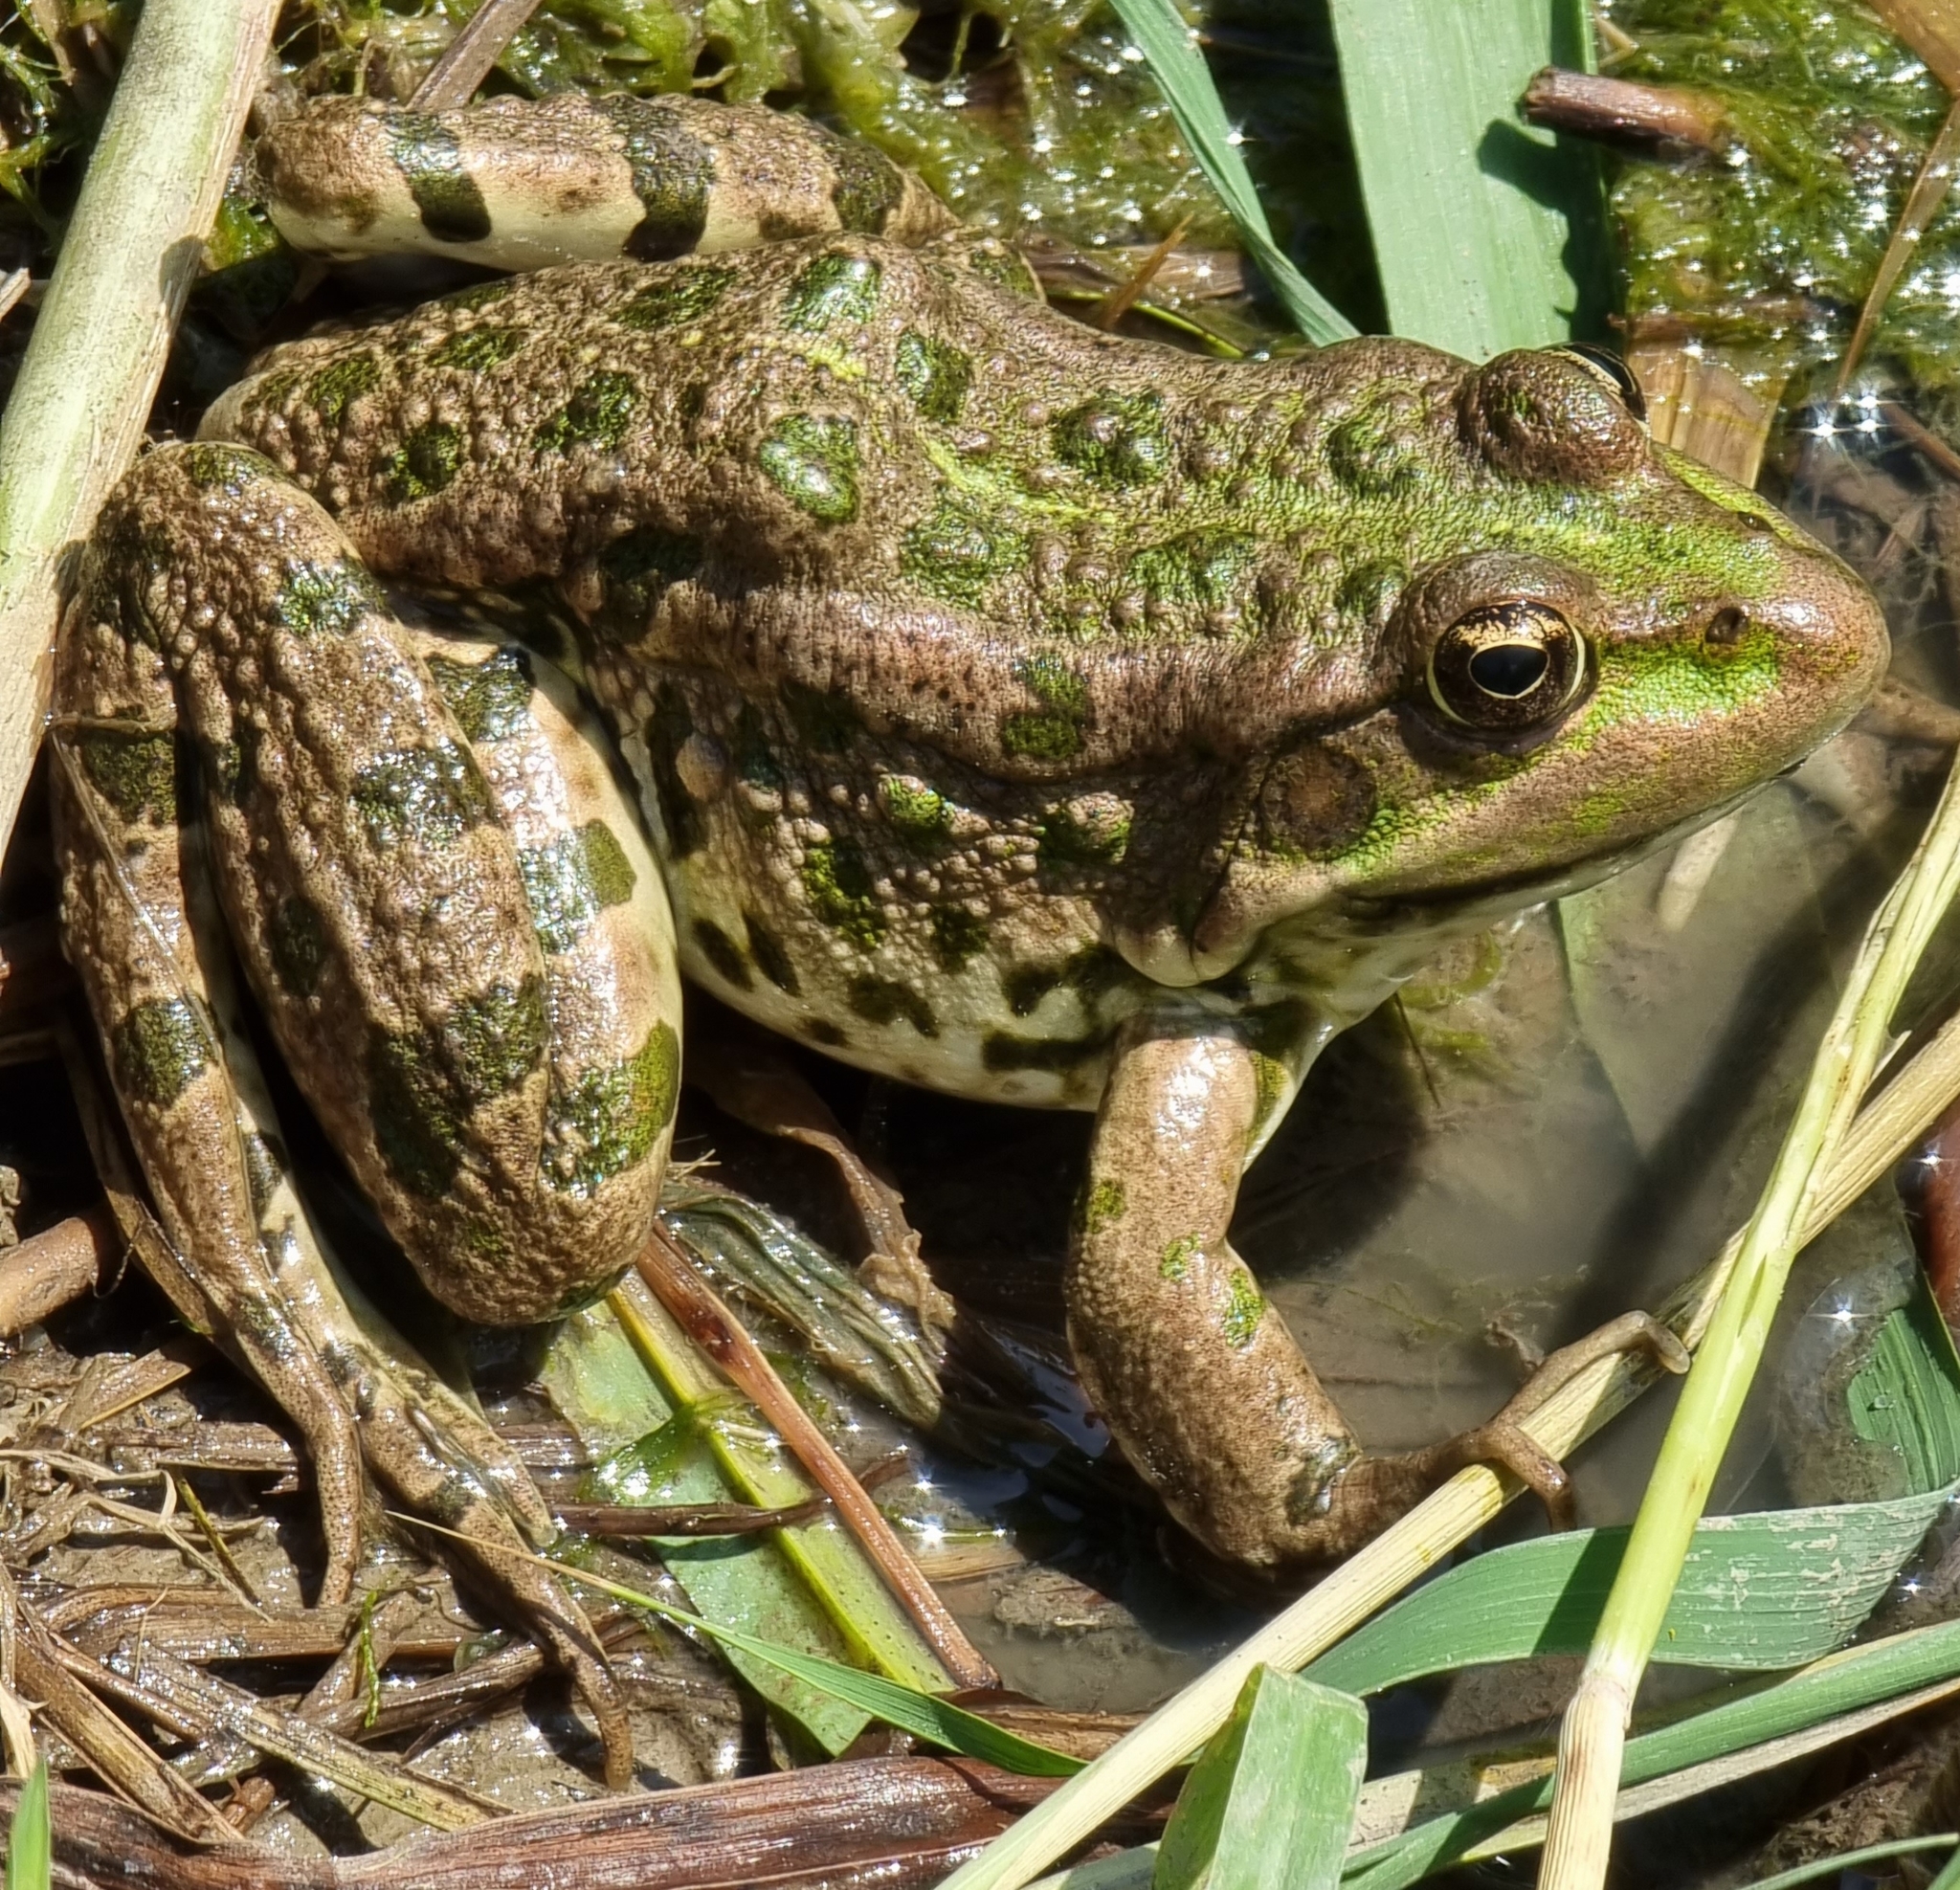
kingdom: Animalia
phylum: Chordata
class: Amphibia
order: Anura
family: Ranidae
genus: Pelophylax
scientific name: Pelophylax ridibundus
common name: Marsh frog
